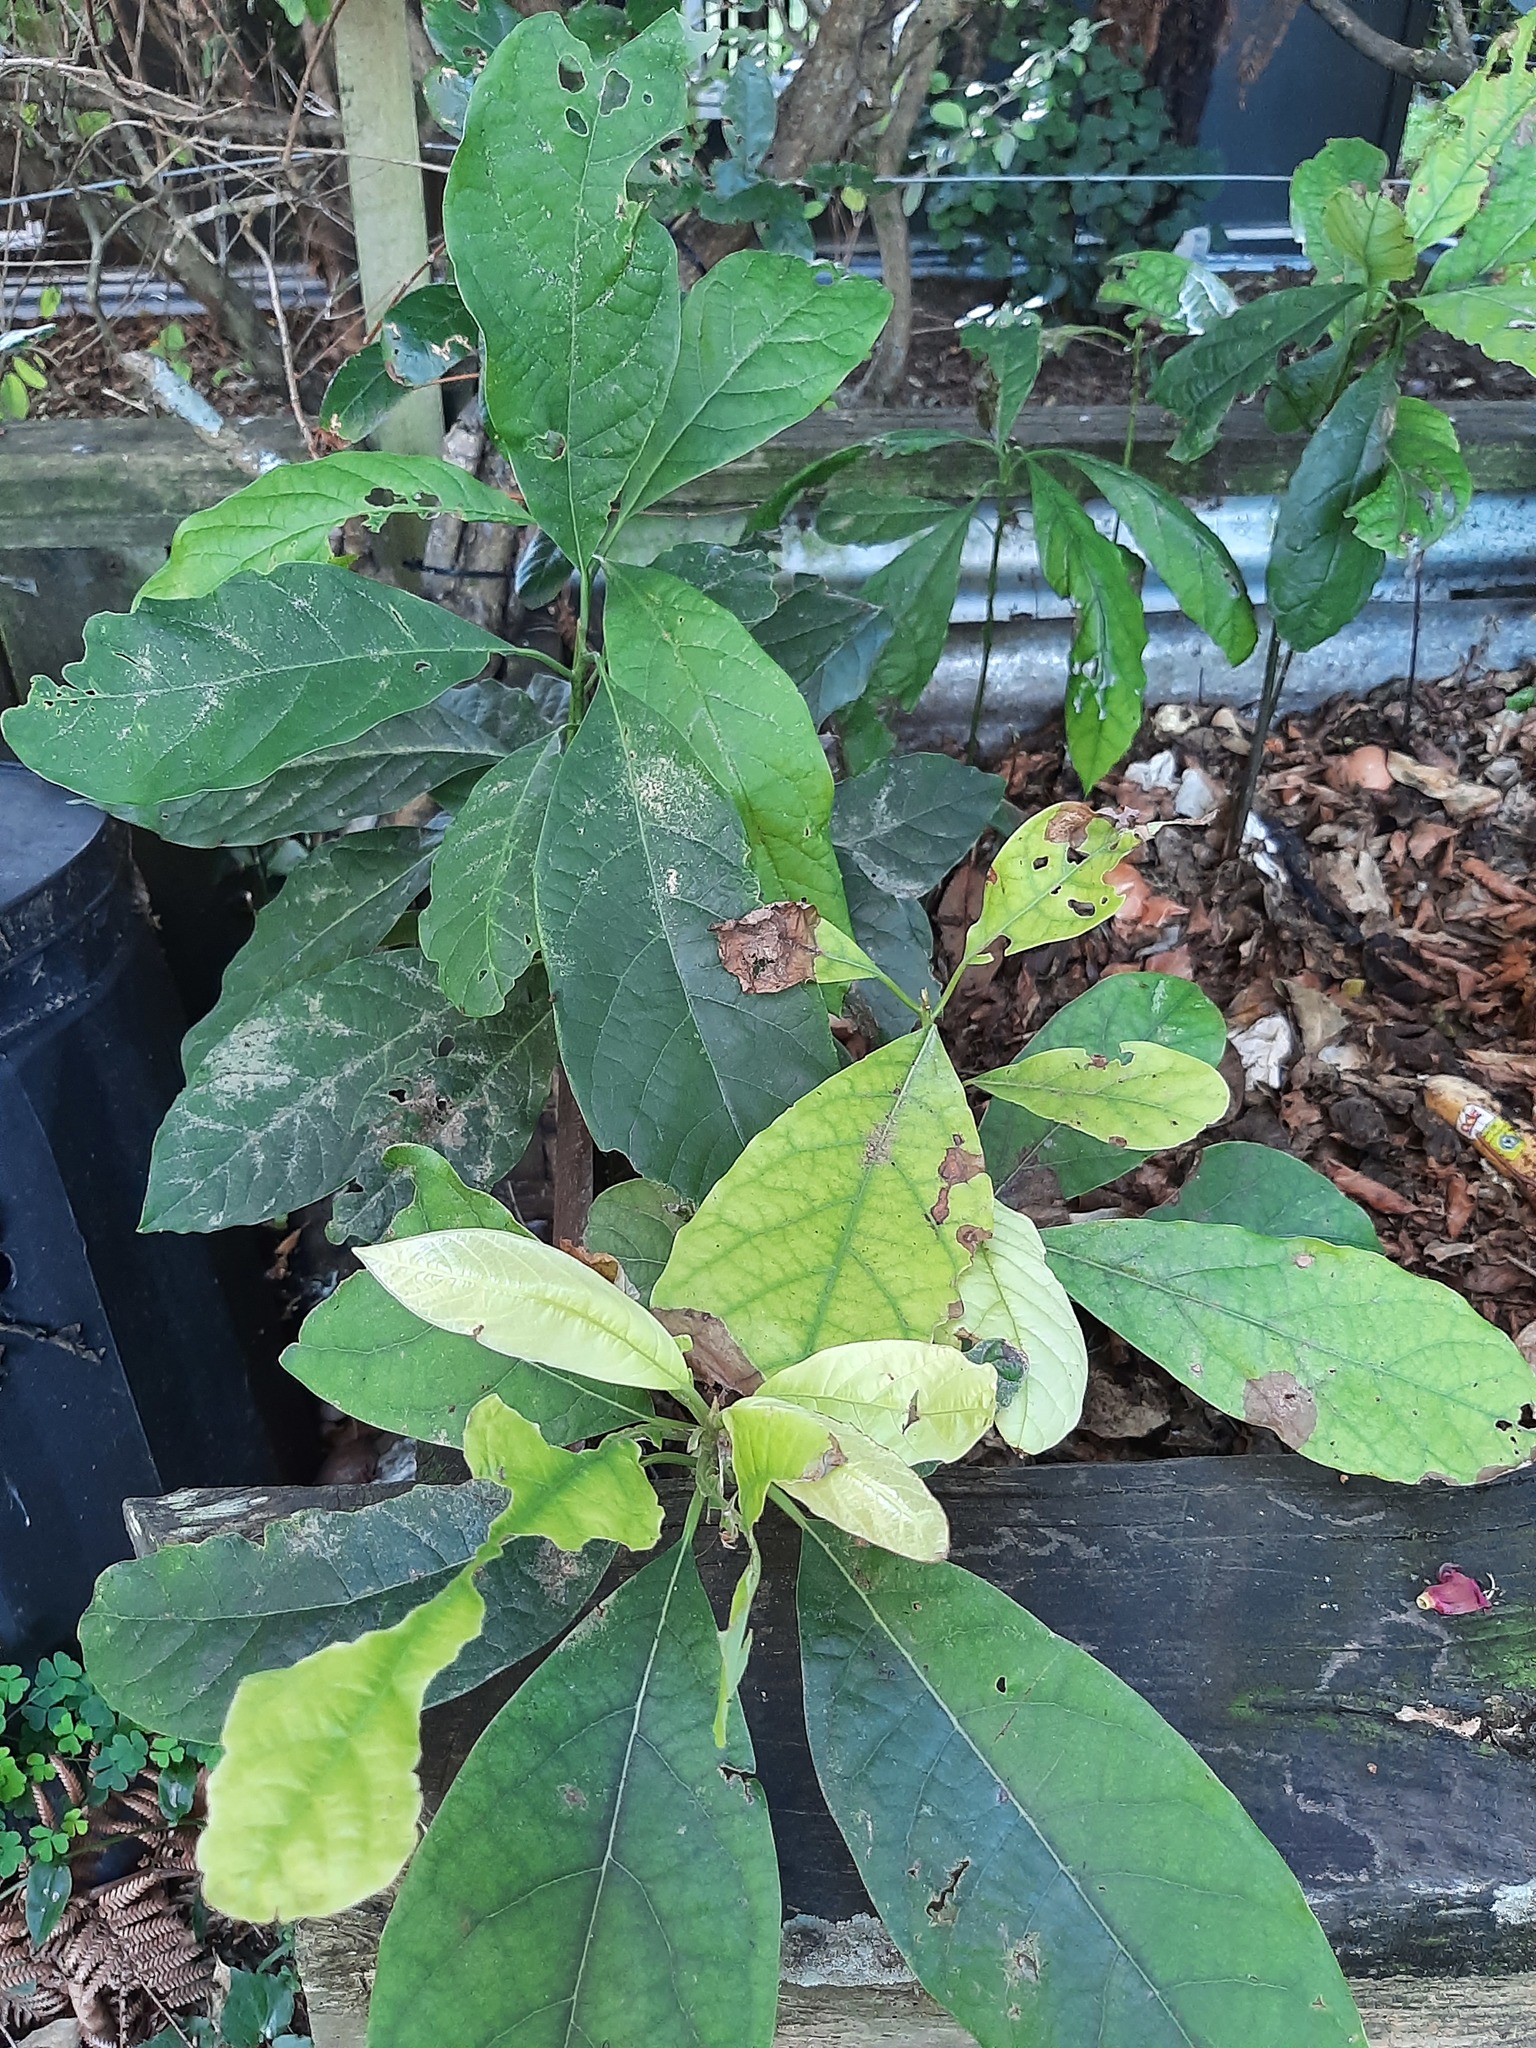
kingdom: Plantae
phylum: Tracheophyta
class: Magnoliopsida
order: Laurales
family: Lauraceae
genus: Persea
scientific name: Persea americana
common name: Avocado
